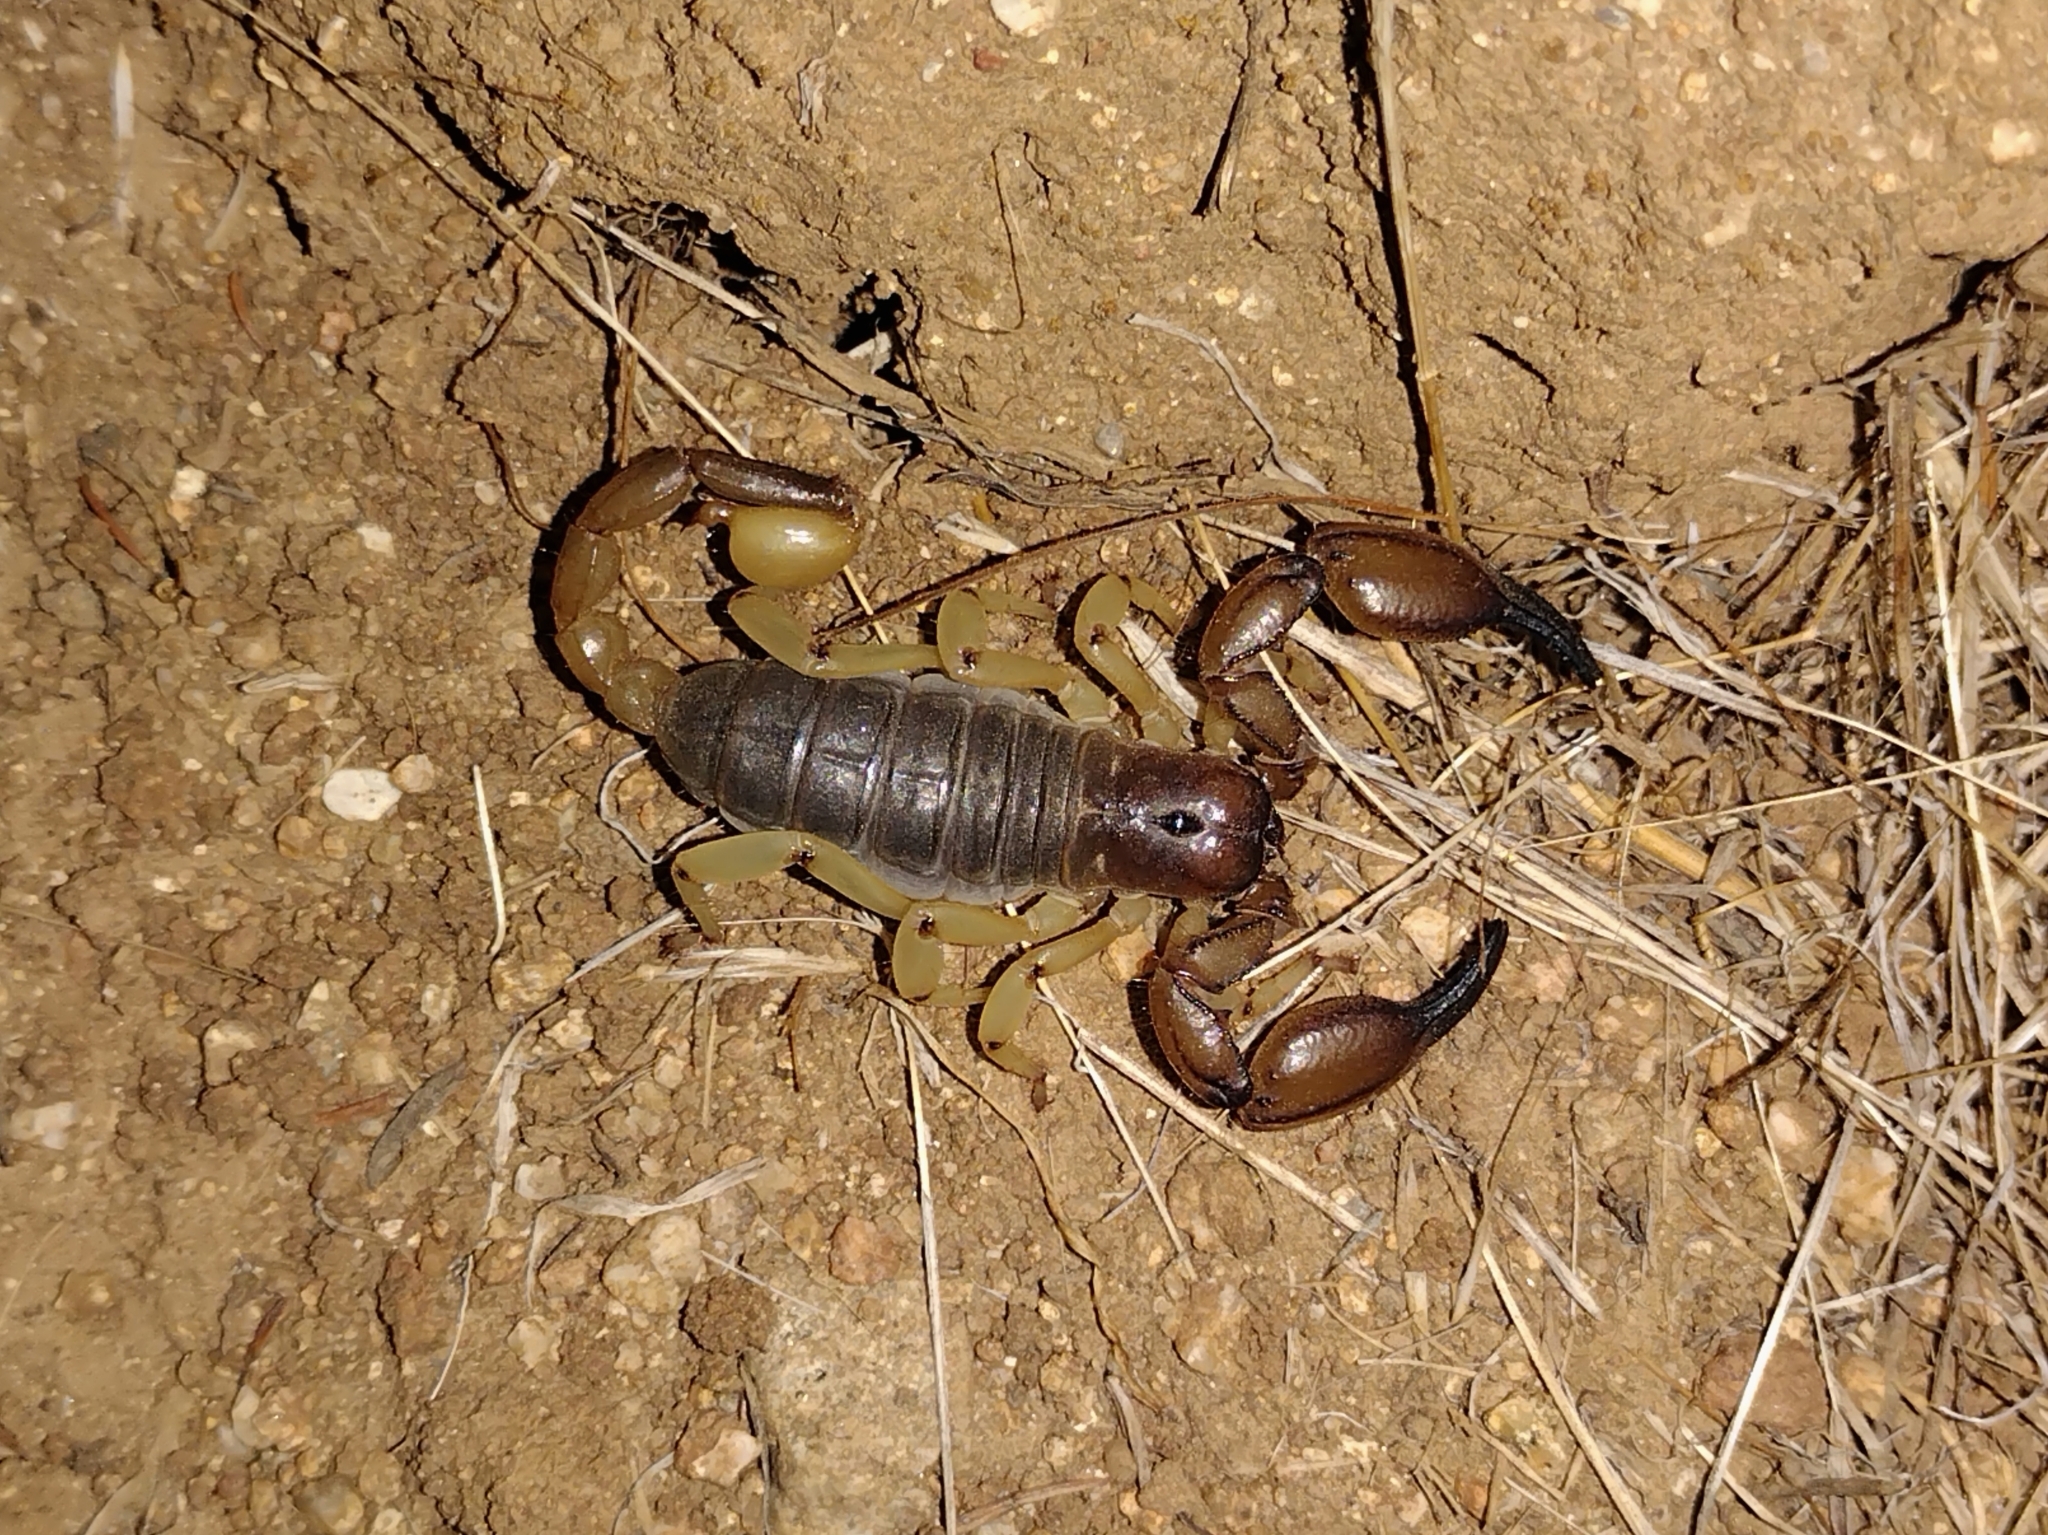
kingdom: Animalia
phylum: Arthropoda
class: Arachnida
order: Scorpiones
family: Chactidae
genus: Anuroctonus
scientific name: Anuroctonus pococki
